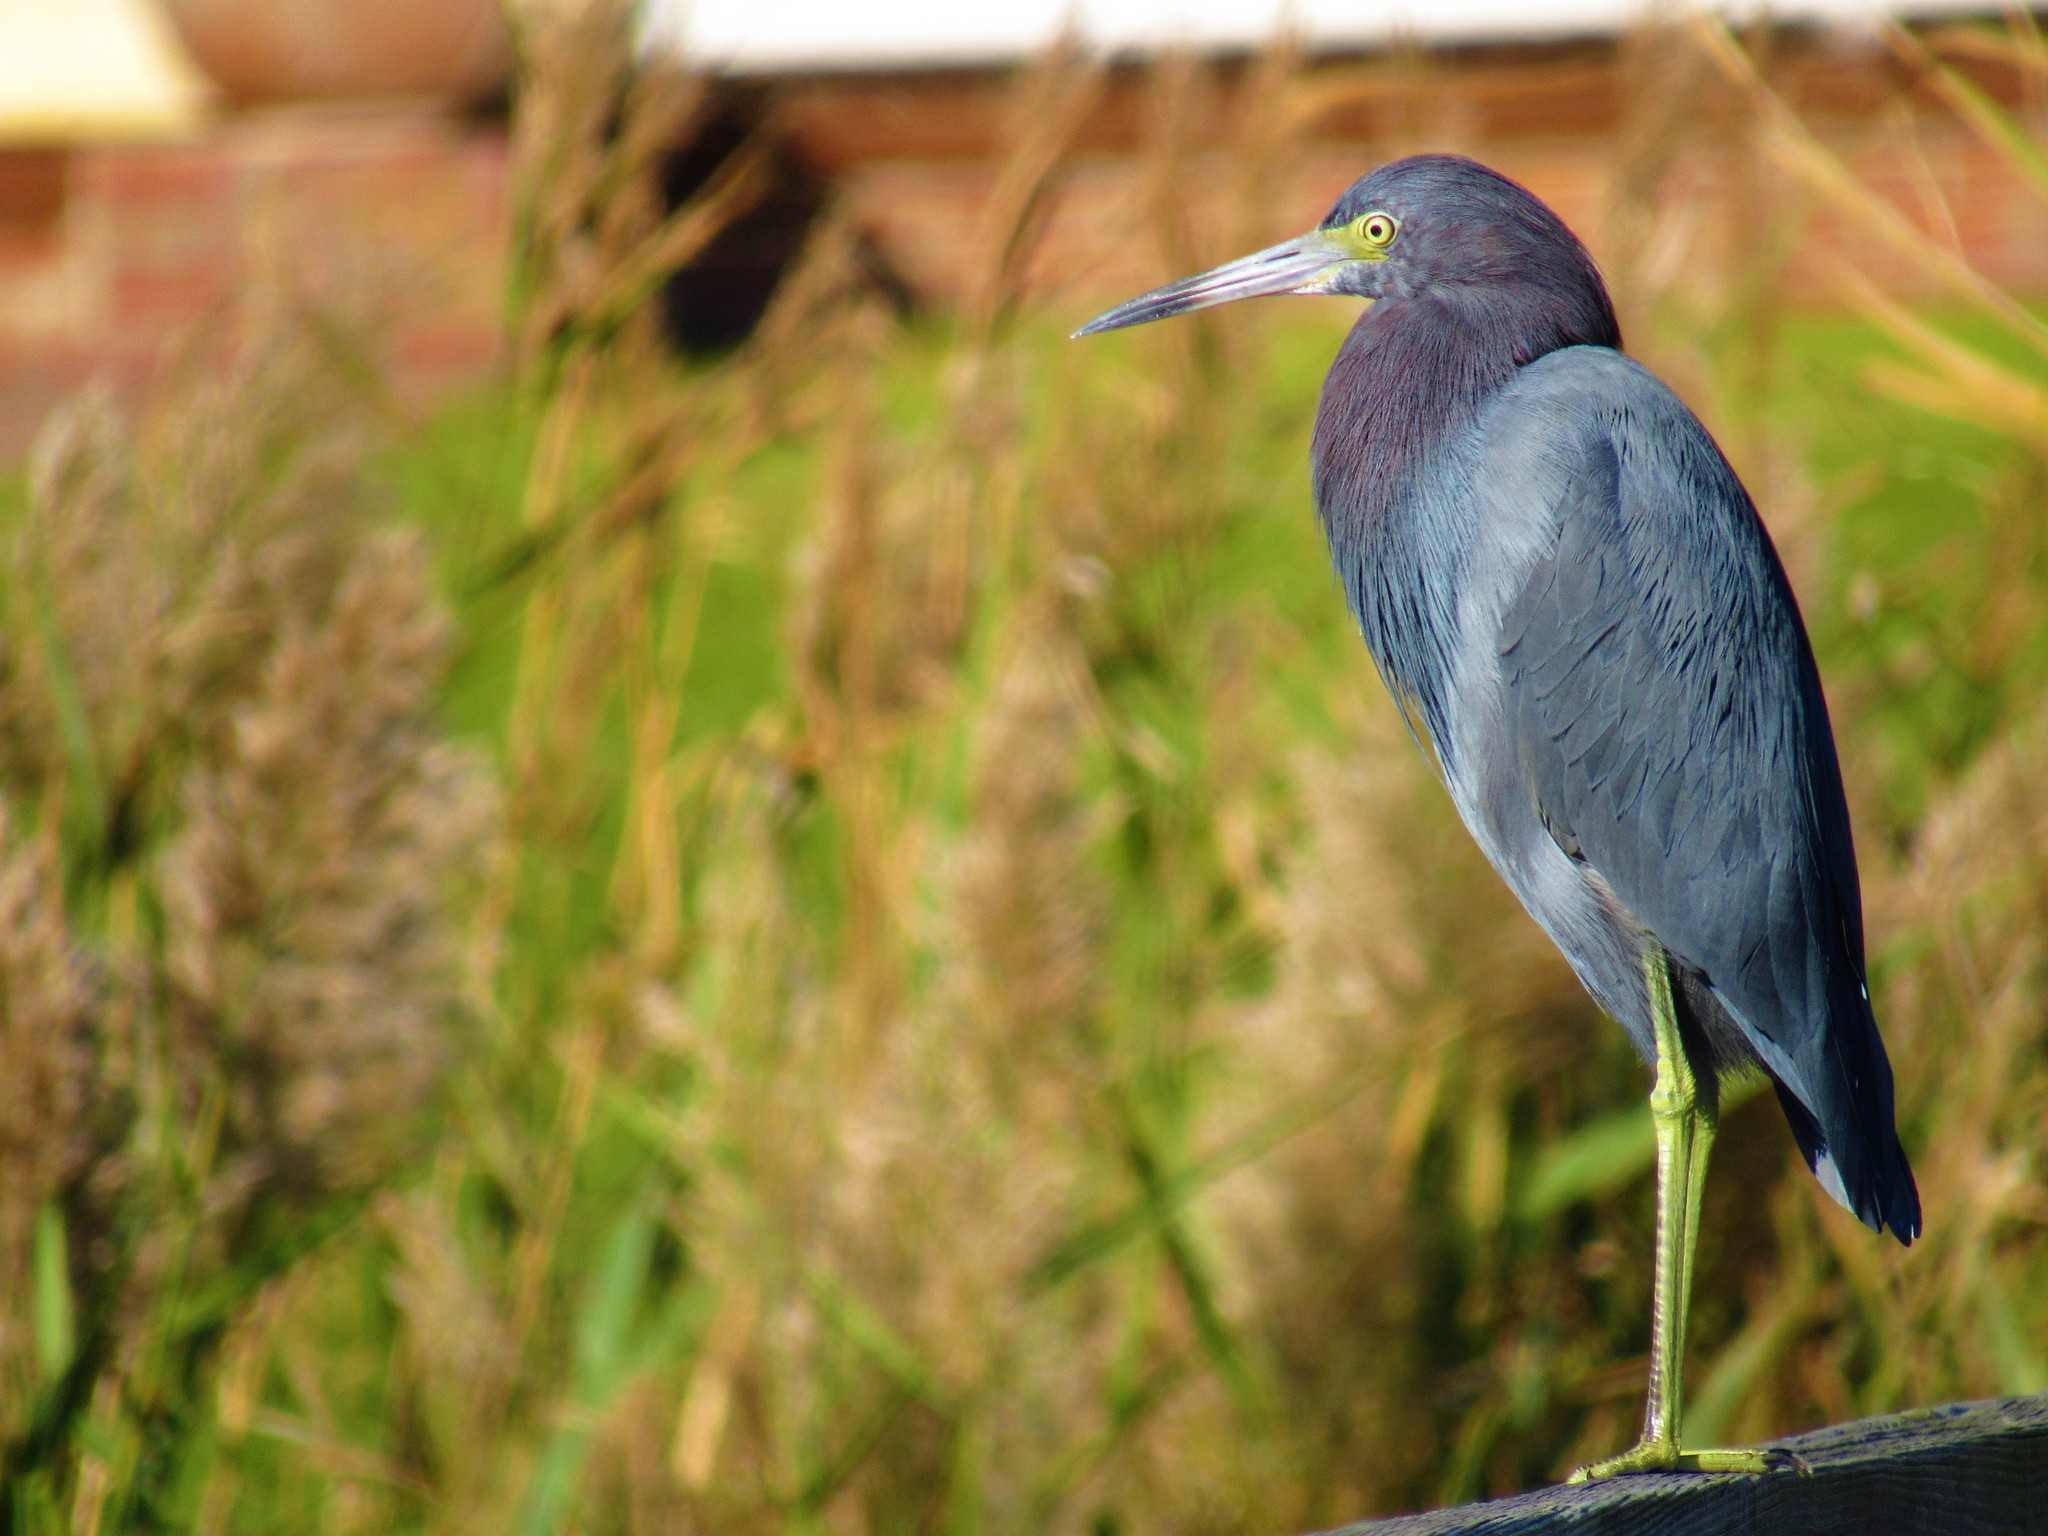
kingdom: Animalia
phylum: Chordata
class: Aves
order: Pelecaniformes
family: Ardeidae
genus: Egretta
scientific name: Egretta caerulea
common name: Little blue heron
